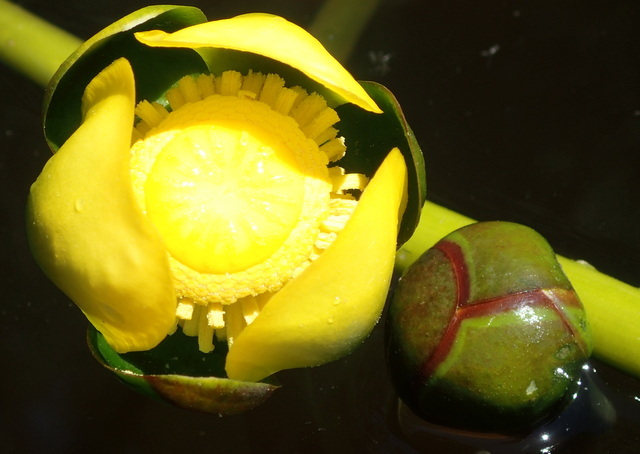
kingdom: Plantae
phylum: Tracheophyta
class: Magnoliopsida
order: Nymphaeales
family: Nymphaeaceae
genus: Nuphar
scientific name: Nuphar advena
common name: Spatter-dock
